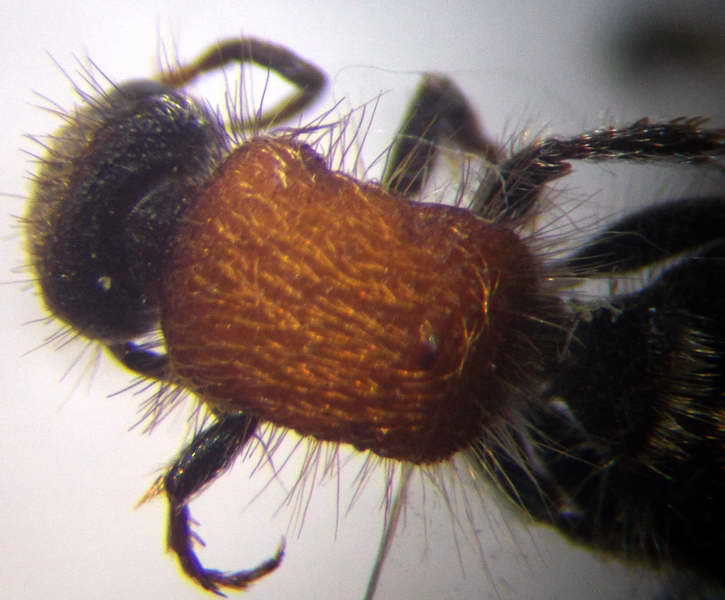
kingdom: Animalia
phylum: Arthropoda
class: Insecta
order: Hymenoptera
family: Mutillidae
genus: Nemka
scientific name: Nemka viduata
